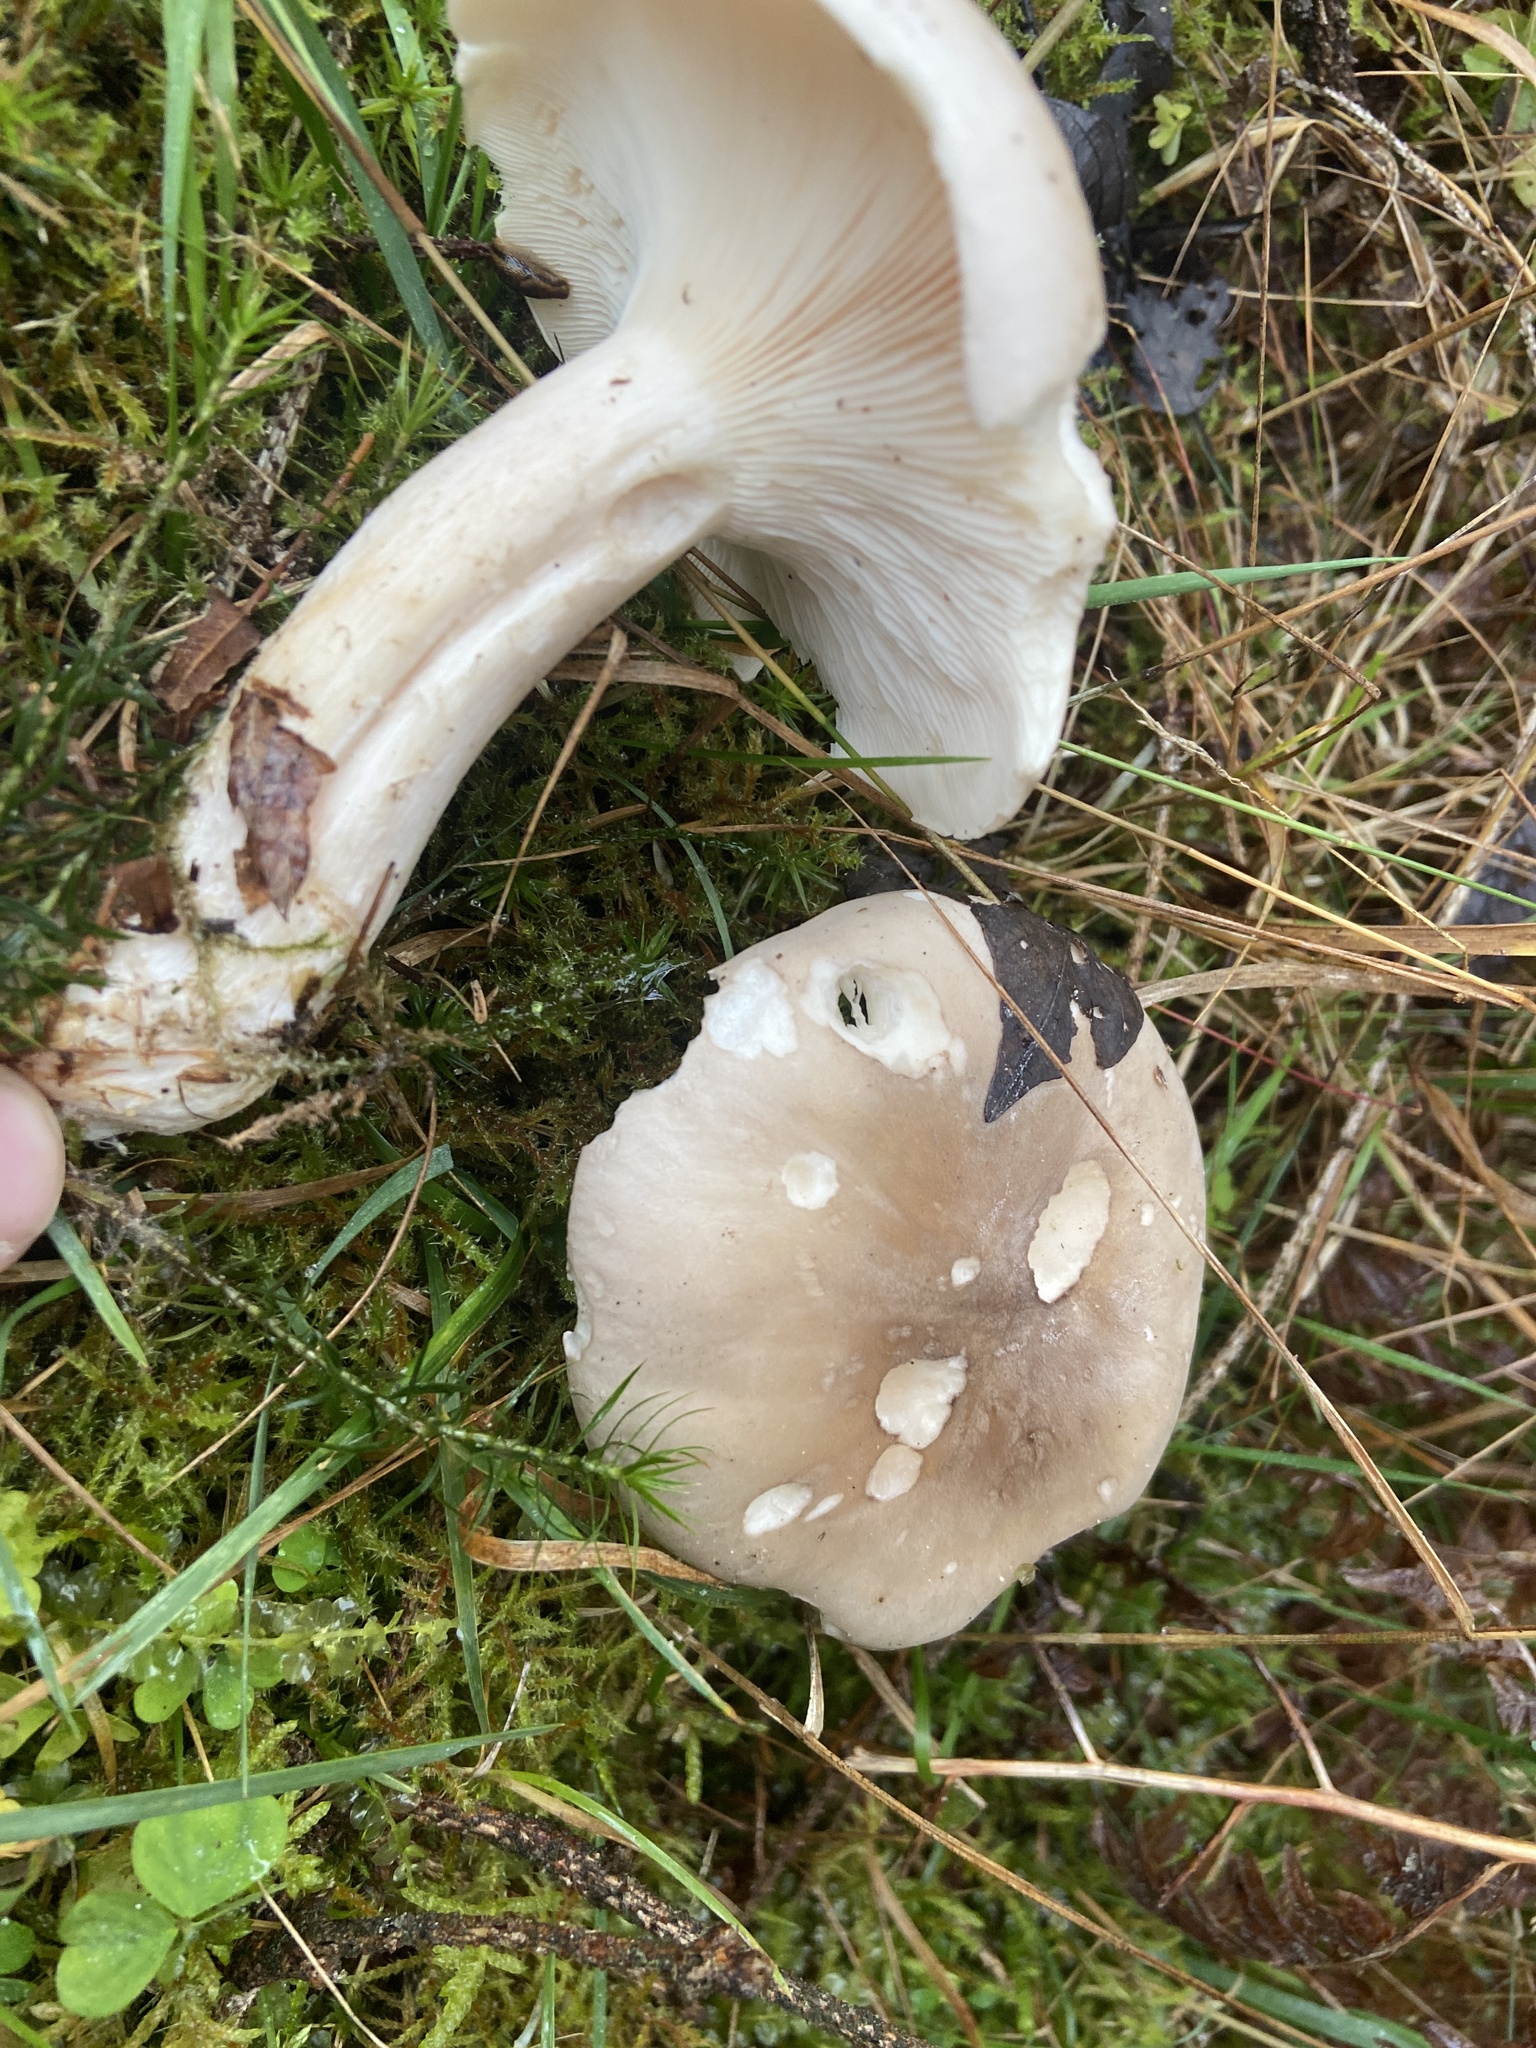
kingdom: Fungi
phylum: Basidiomycota
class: Agaricomycetes
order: Agaricales
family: Tricholomataceae
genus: Clitocybe
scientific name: Clitocybe nebularis
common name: Clouded agaric
